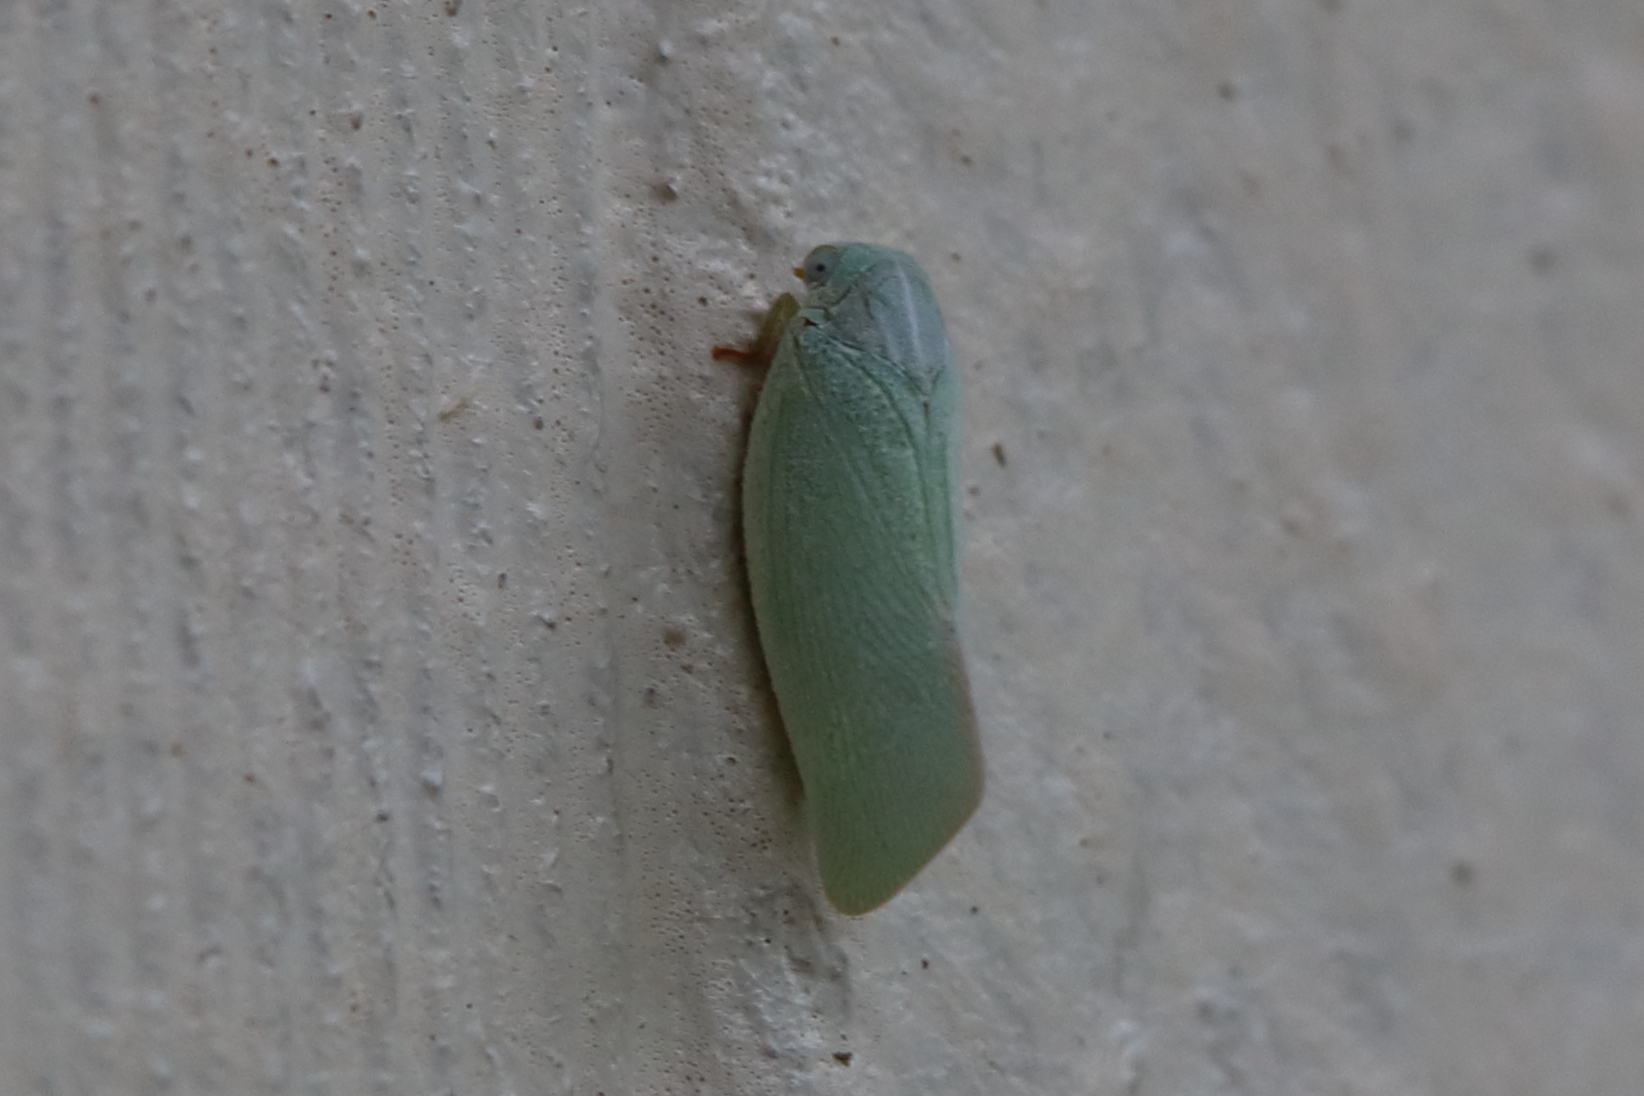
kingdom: Animalia
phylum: Arthropoda
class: Insecta
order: Hemiptera
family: Flatidae
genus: Flatormenis
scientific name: Flatormenis proxima
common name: Northern flatid planthopper
